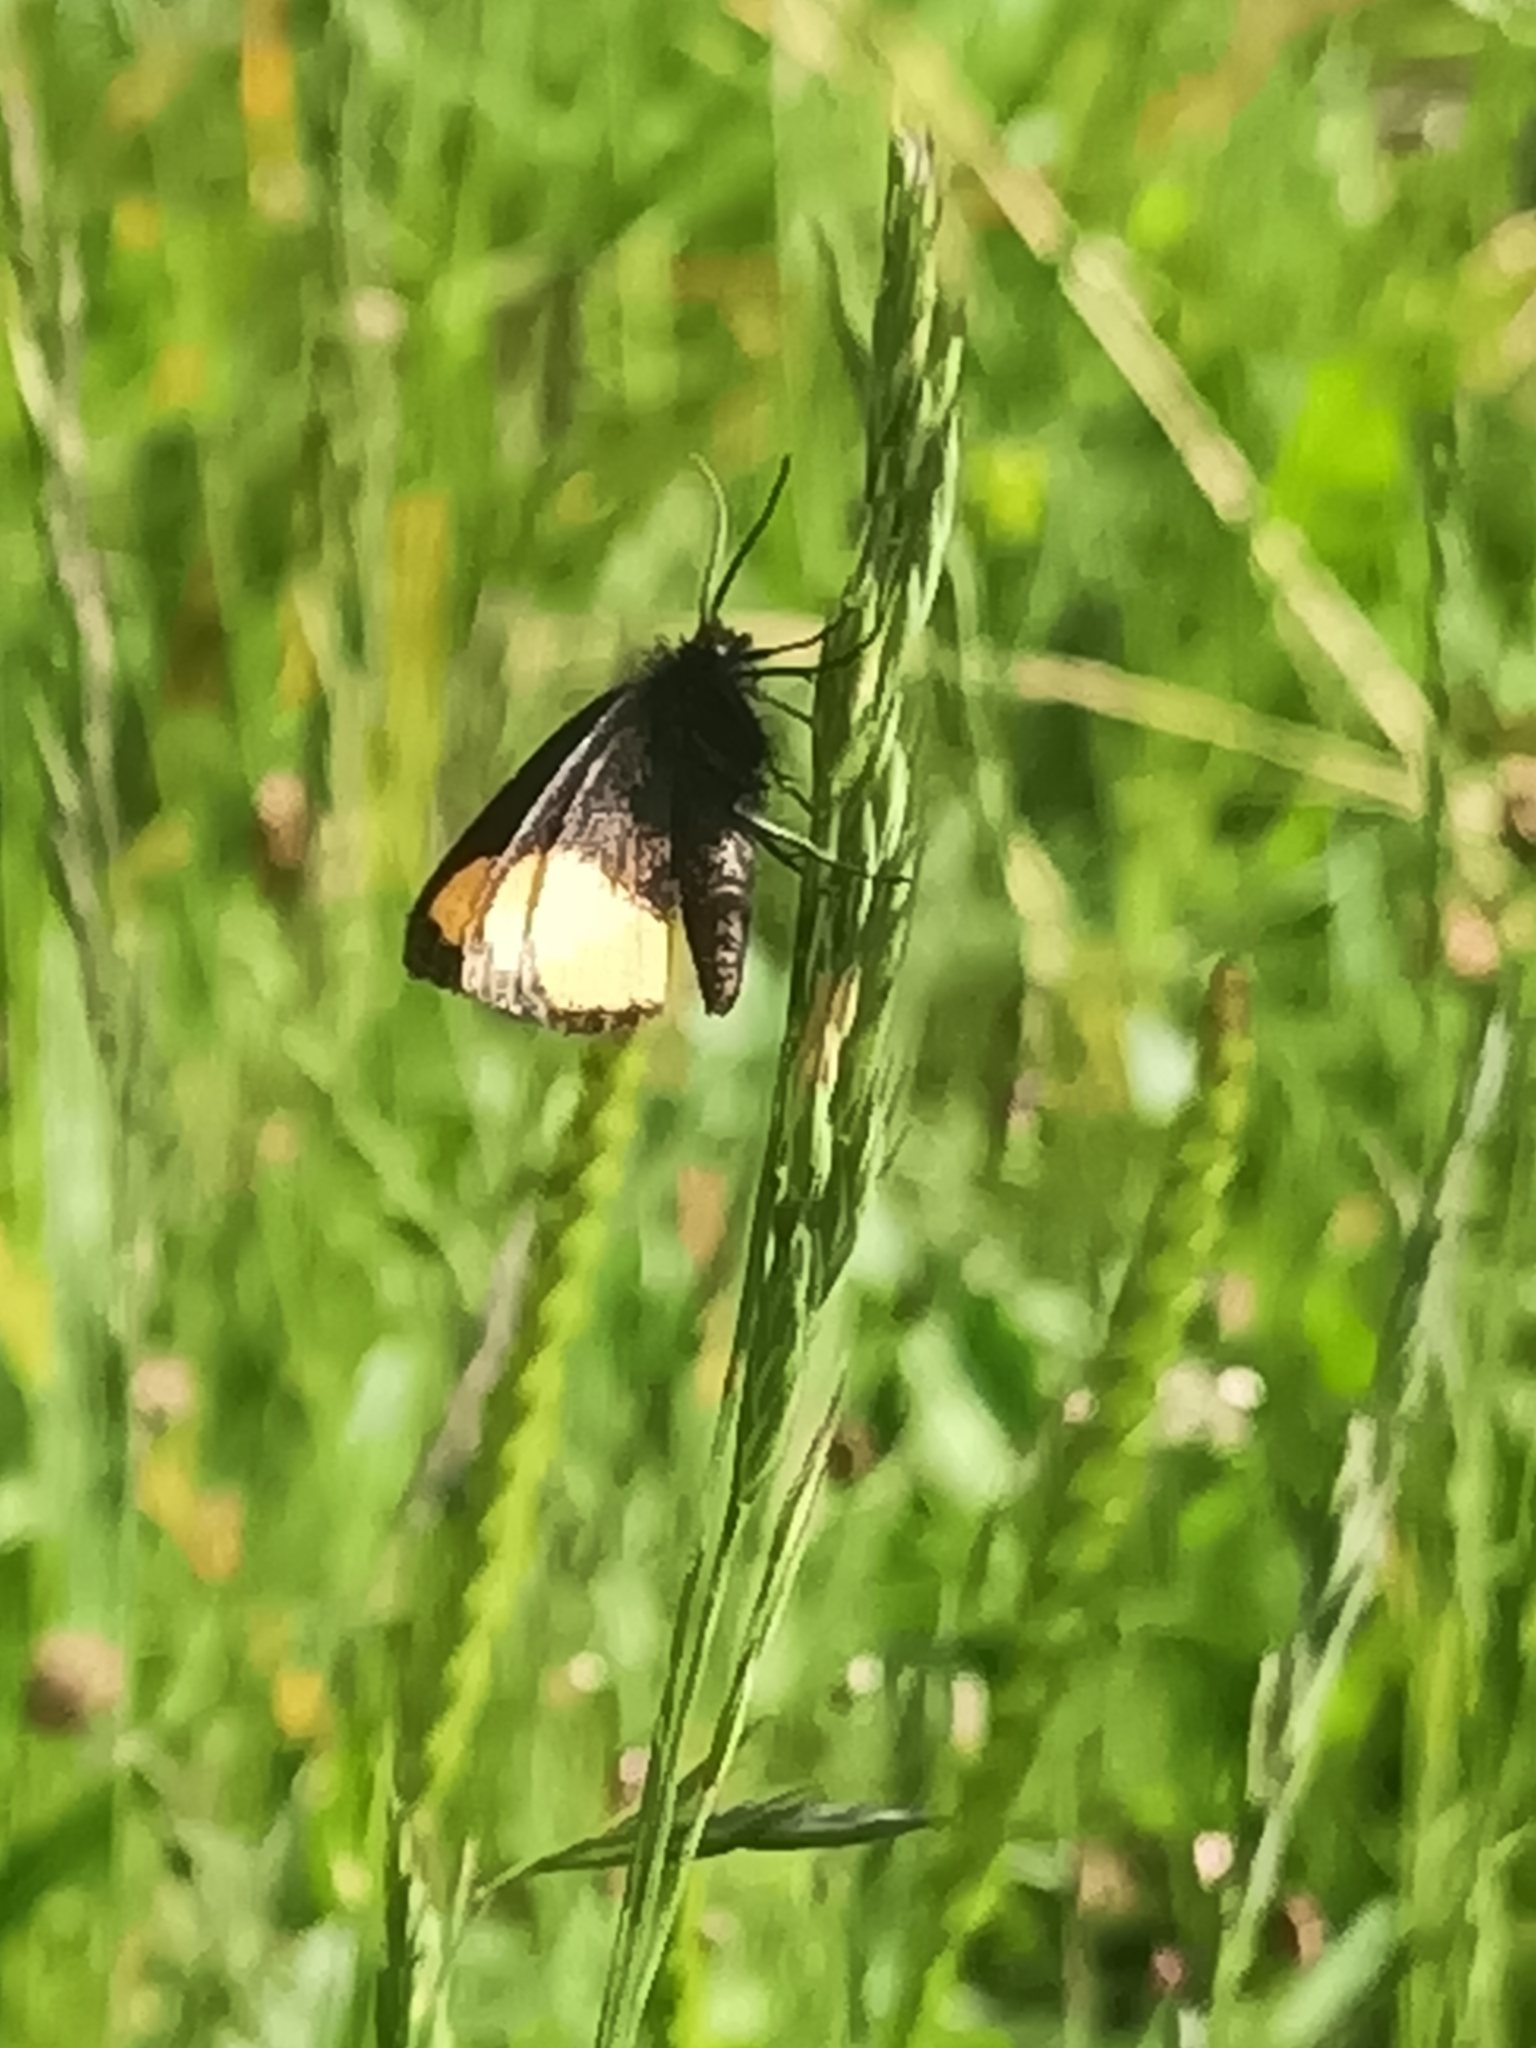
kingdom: Animalia
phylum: Arthropoda
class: Insecta
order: Lepidoptera
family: Geometridae
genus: Psodos
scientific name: Psodos quadrifaria
